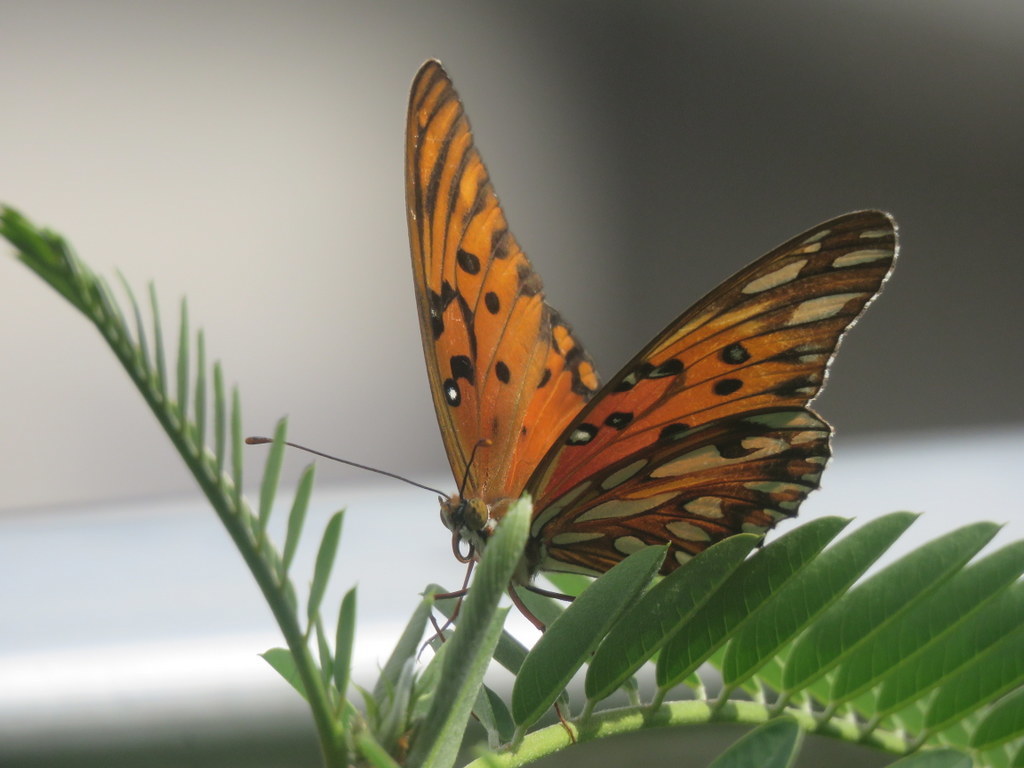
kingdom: Animalia
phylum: Arthropoda
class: Insecta
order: Lepidoptera
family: Nymphalidae
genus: Dione
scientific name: Dione vanillae
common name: Gulf fritillary
